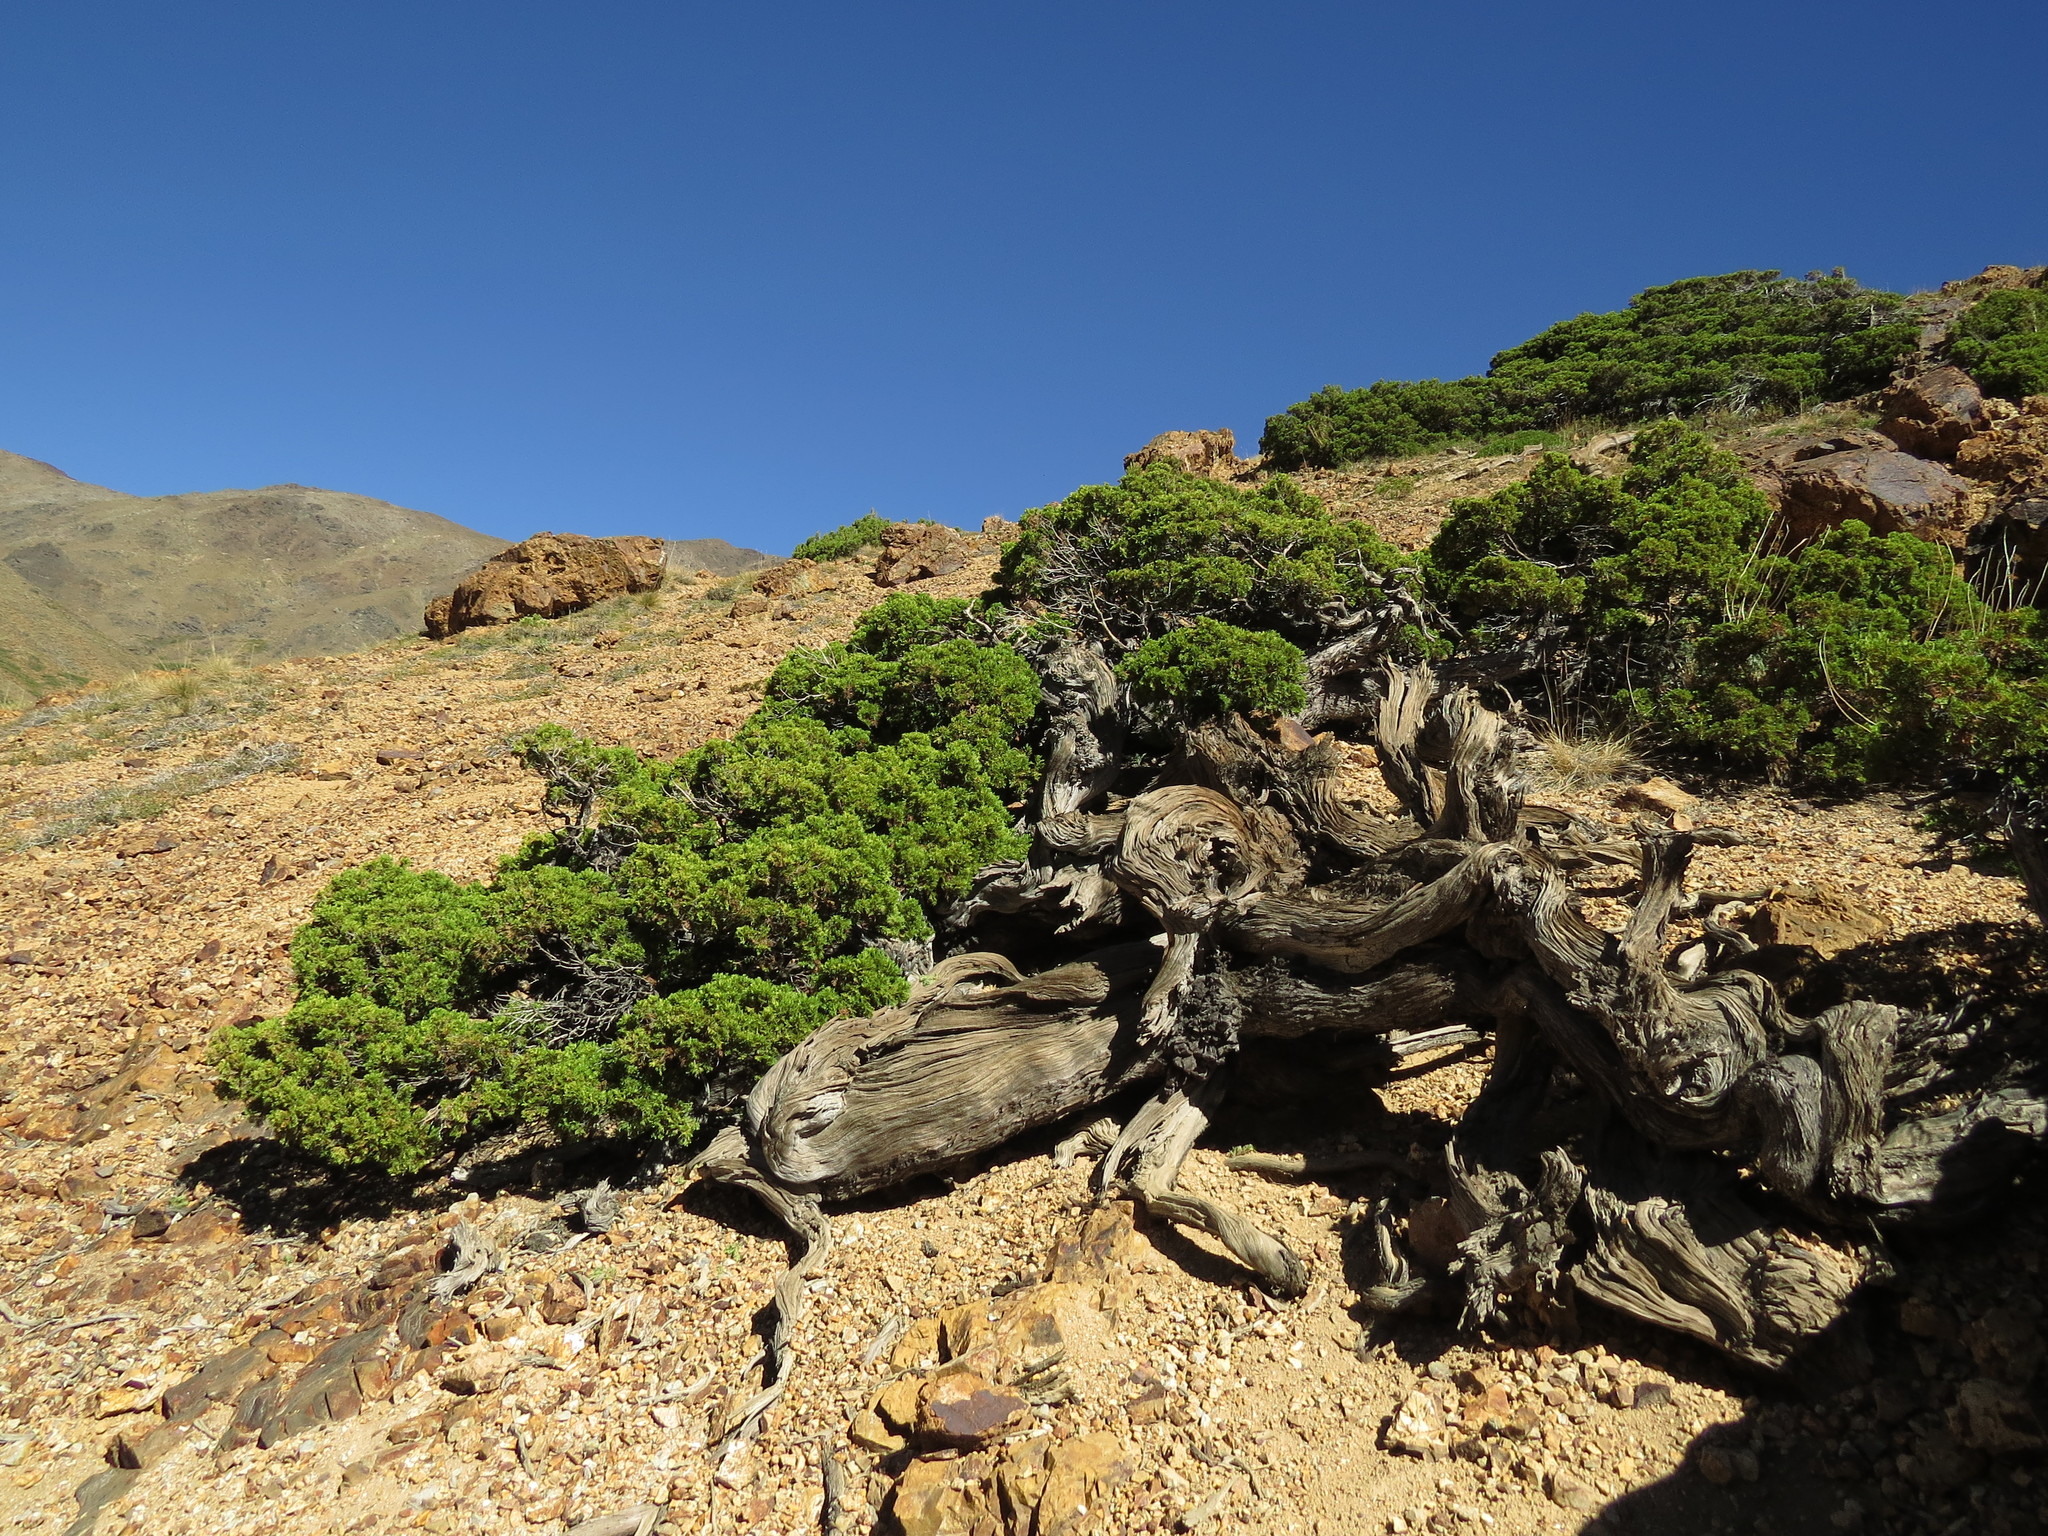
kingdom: Plantae
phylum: Tracheophyta
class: Pinopsida
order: Pinales
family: Cupressaceae
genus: Austrocedrus
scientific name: Austrocedrus chilensis
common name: Chilean incense-cedar
